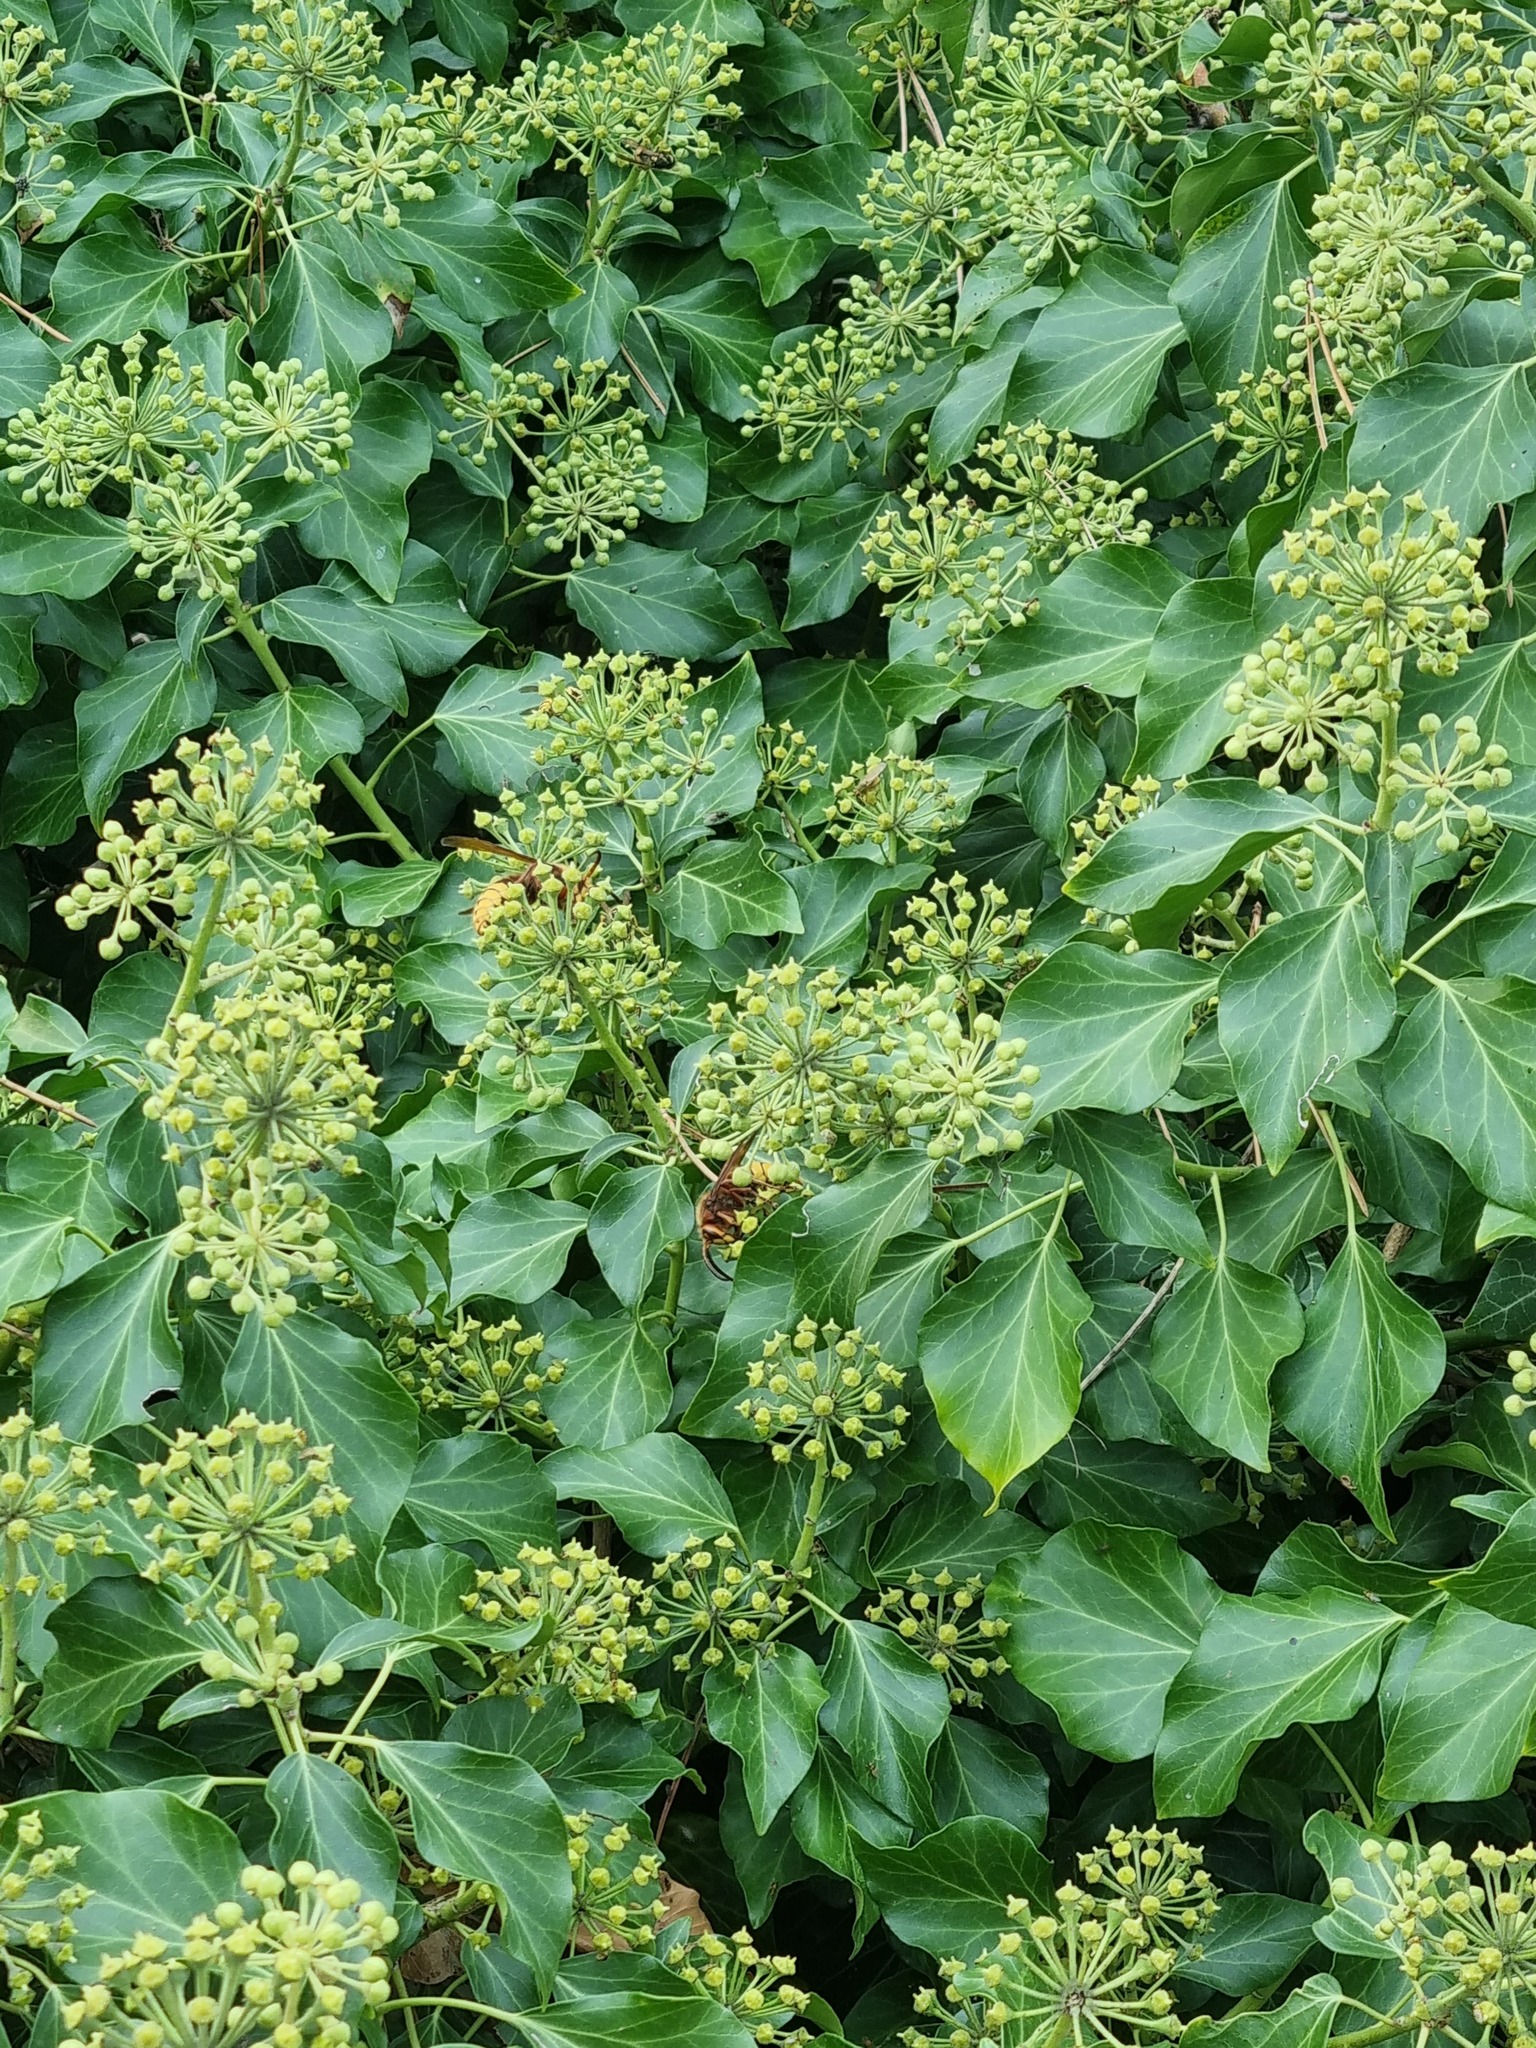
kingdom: Animalia
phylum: Arthropoda
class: Insecta
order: Hymenoptera
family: Vespidae
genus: Vespa
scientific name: Vespa crabro
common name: Hornet
